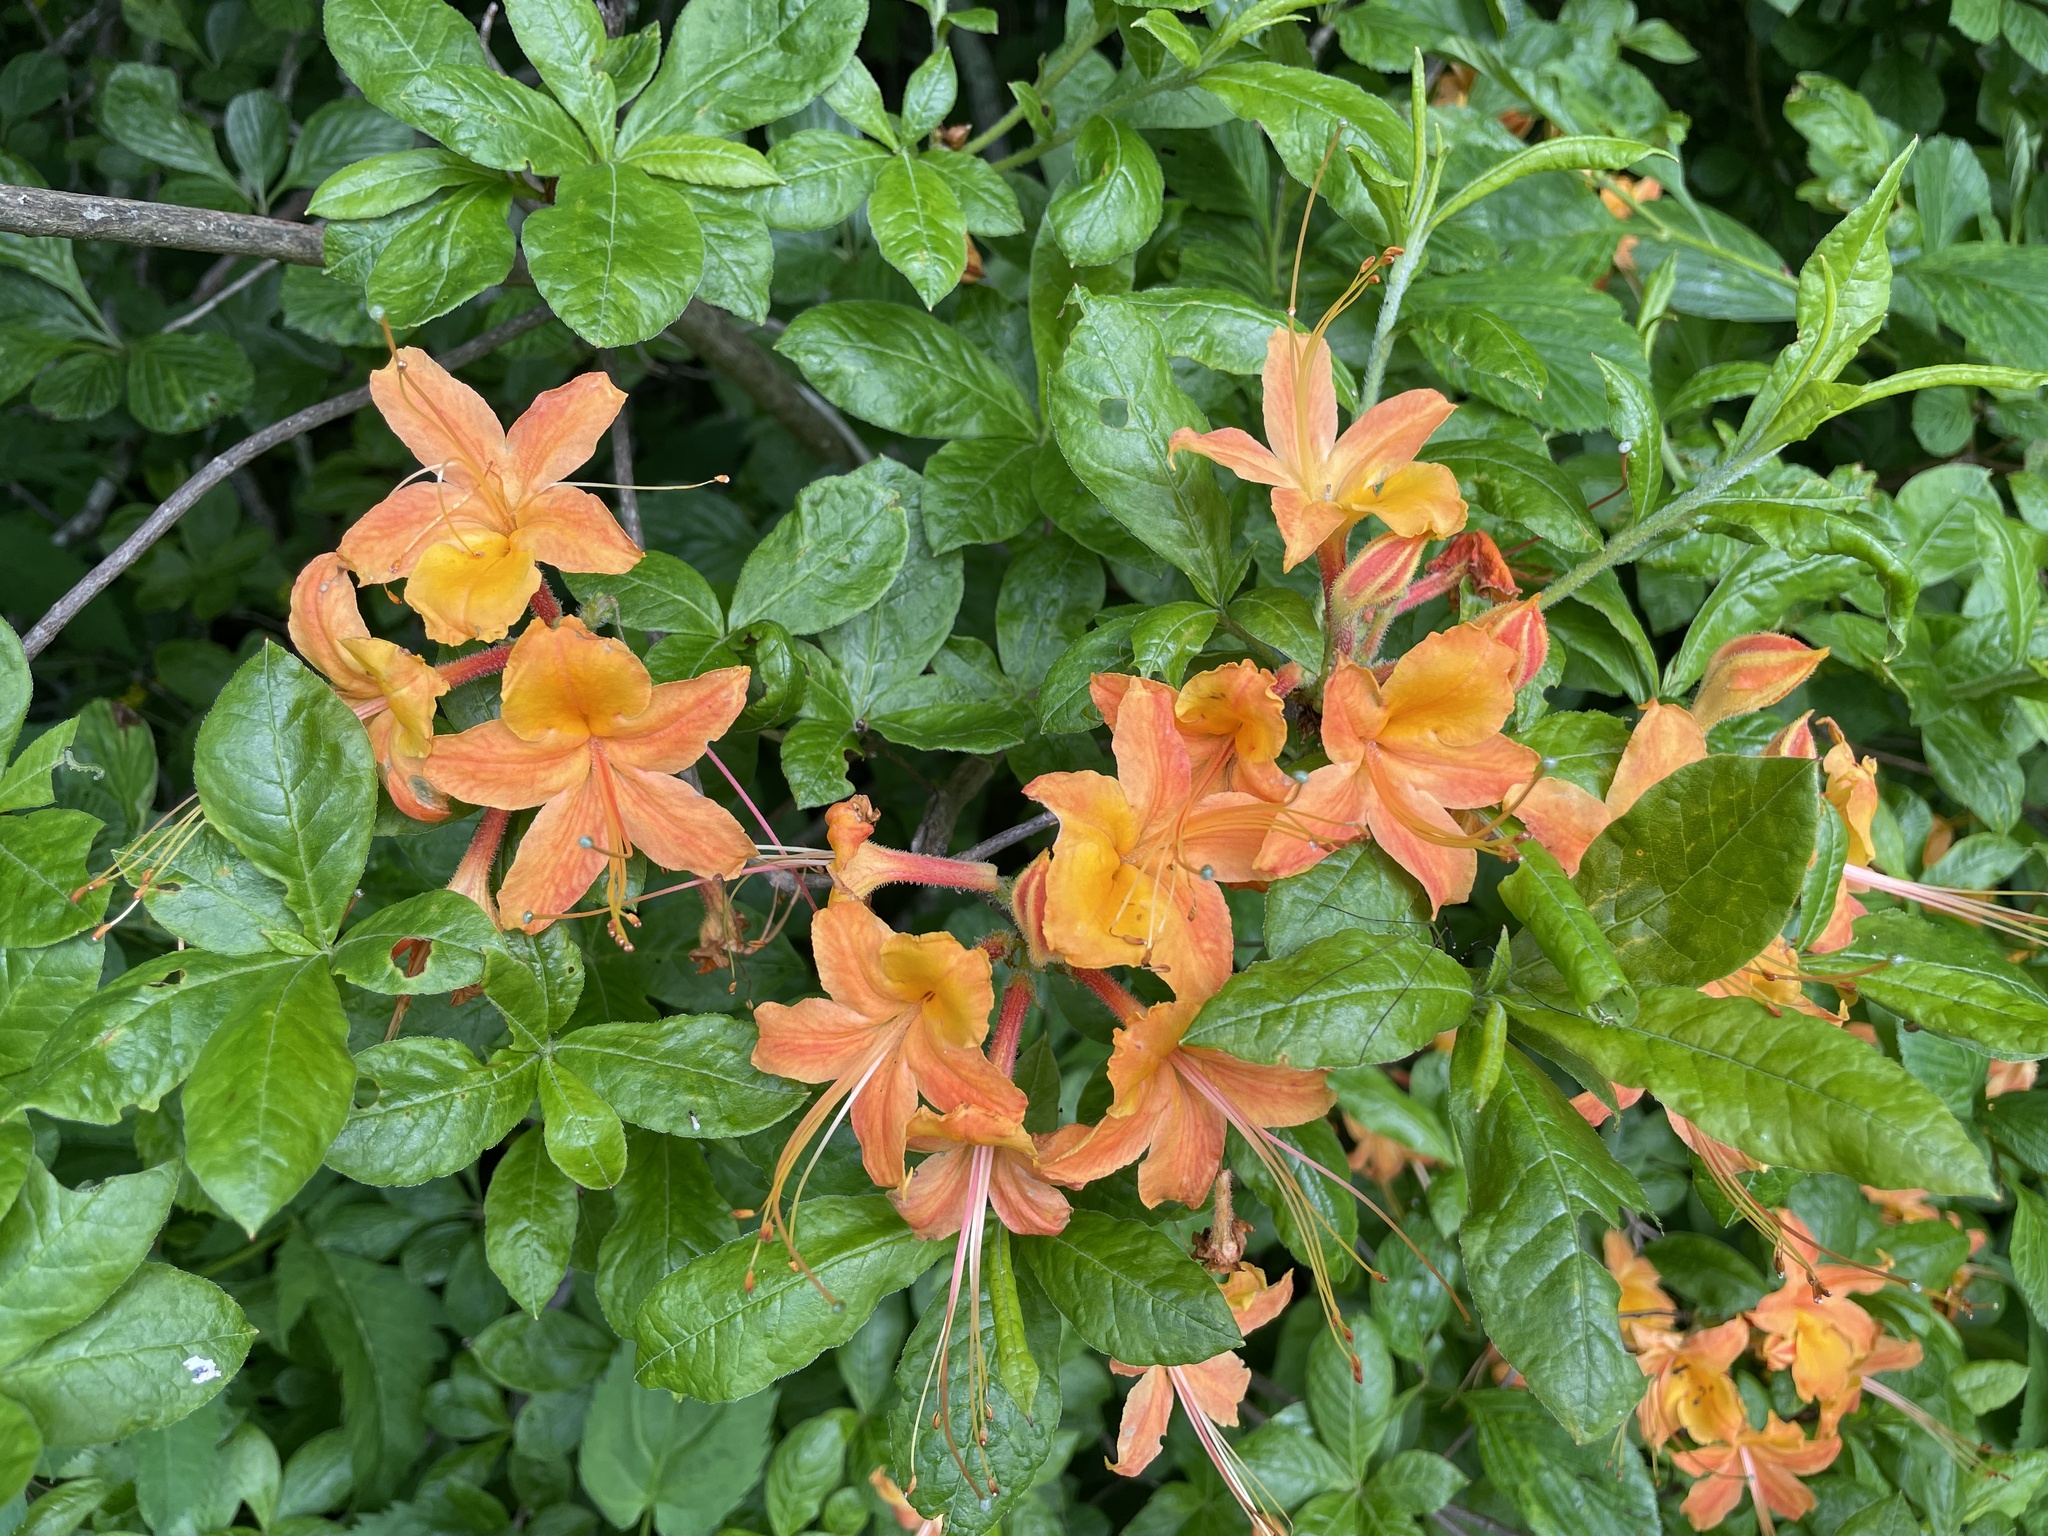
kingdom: Plantae
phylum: Tracheophyta
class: Magnoliopsida
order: Ericales
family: Ericaceae
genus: Rhododendron
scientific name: Rhododendron calendulaceum
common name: Flame azalea
